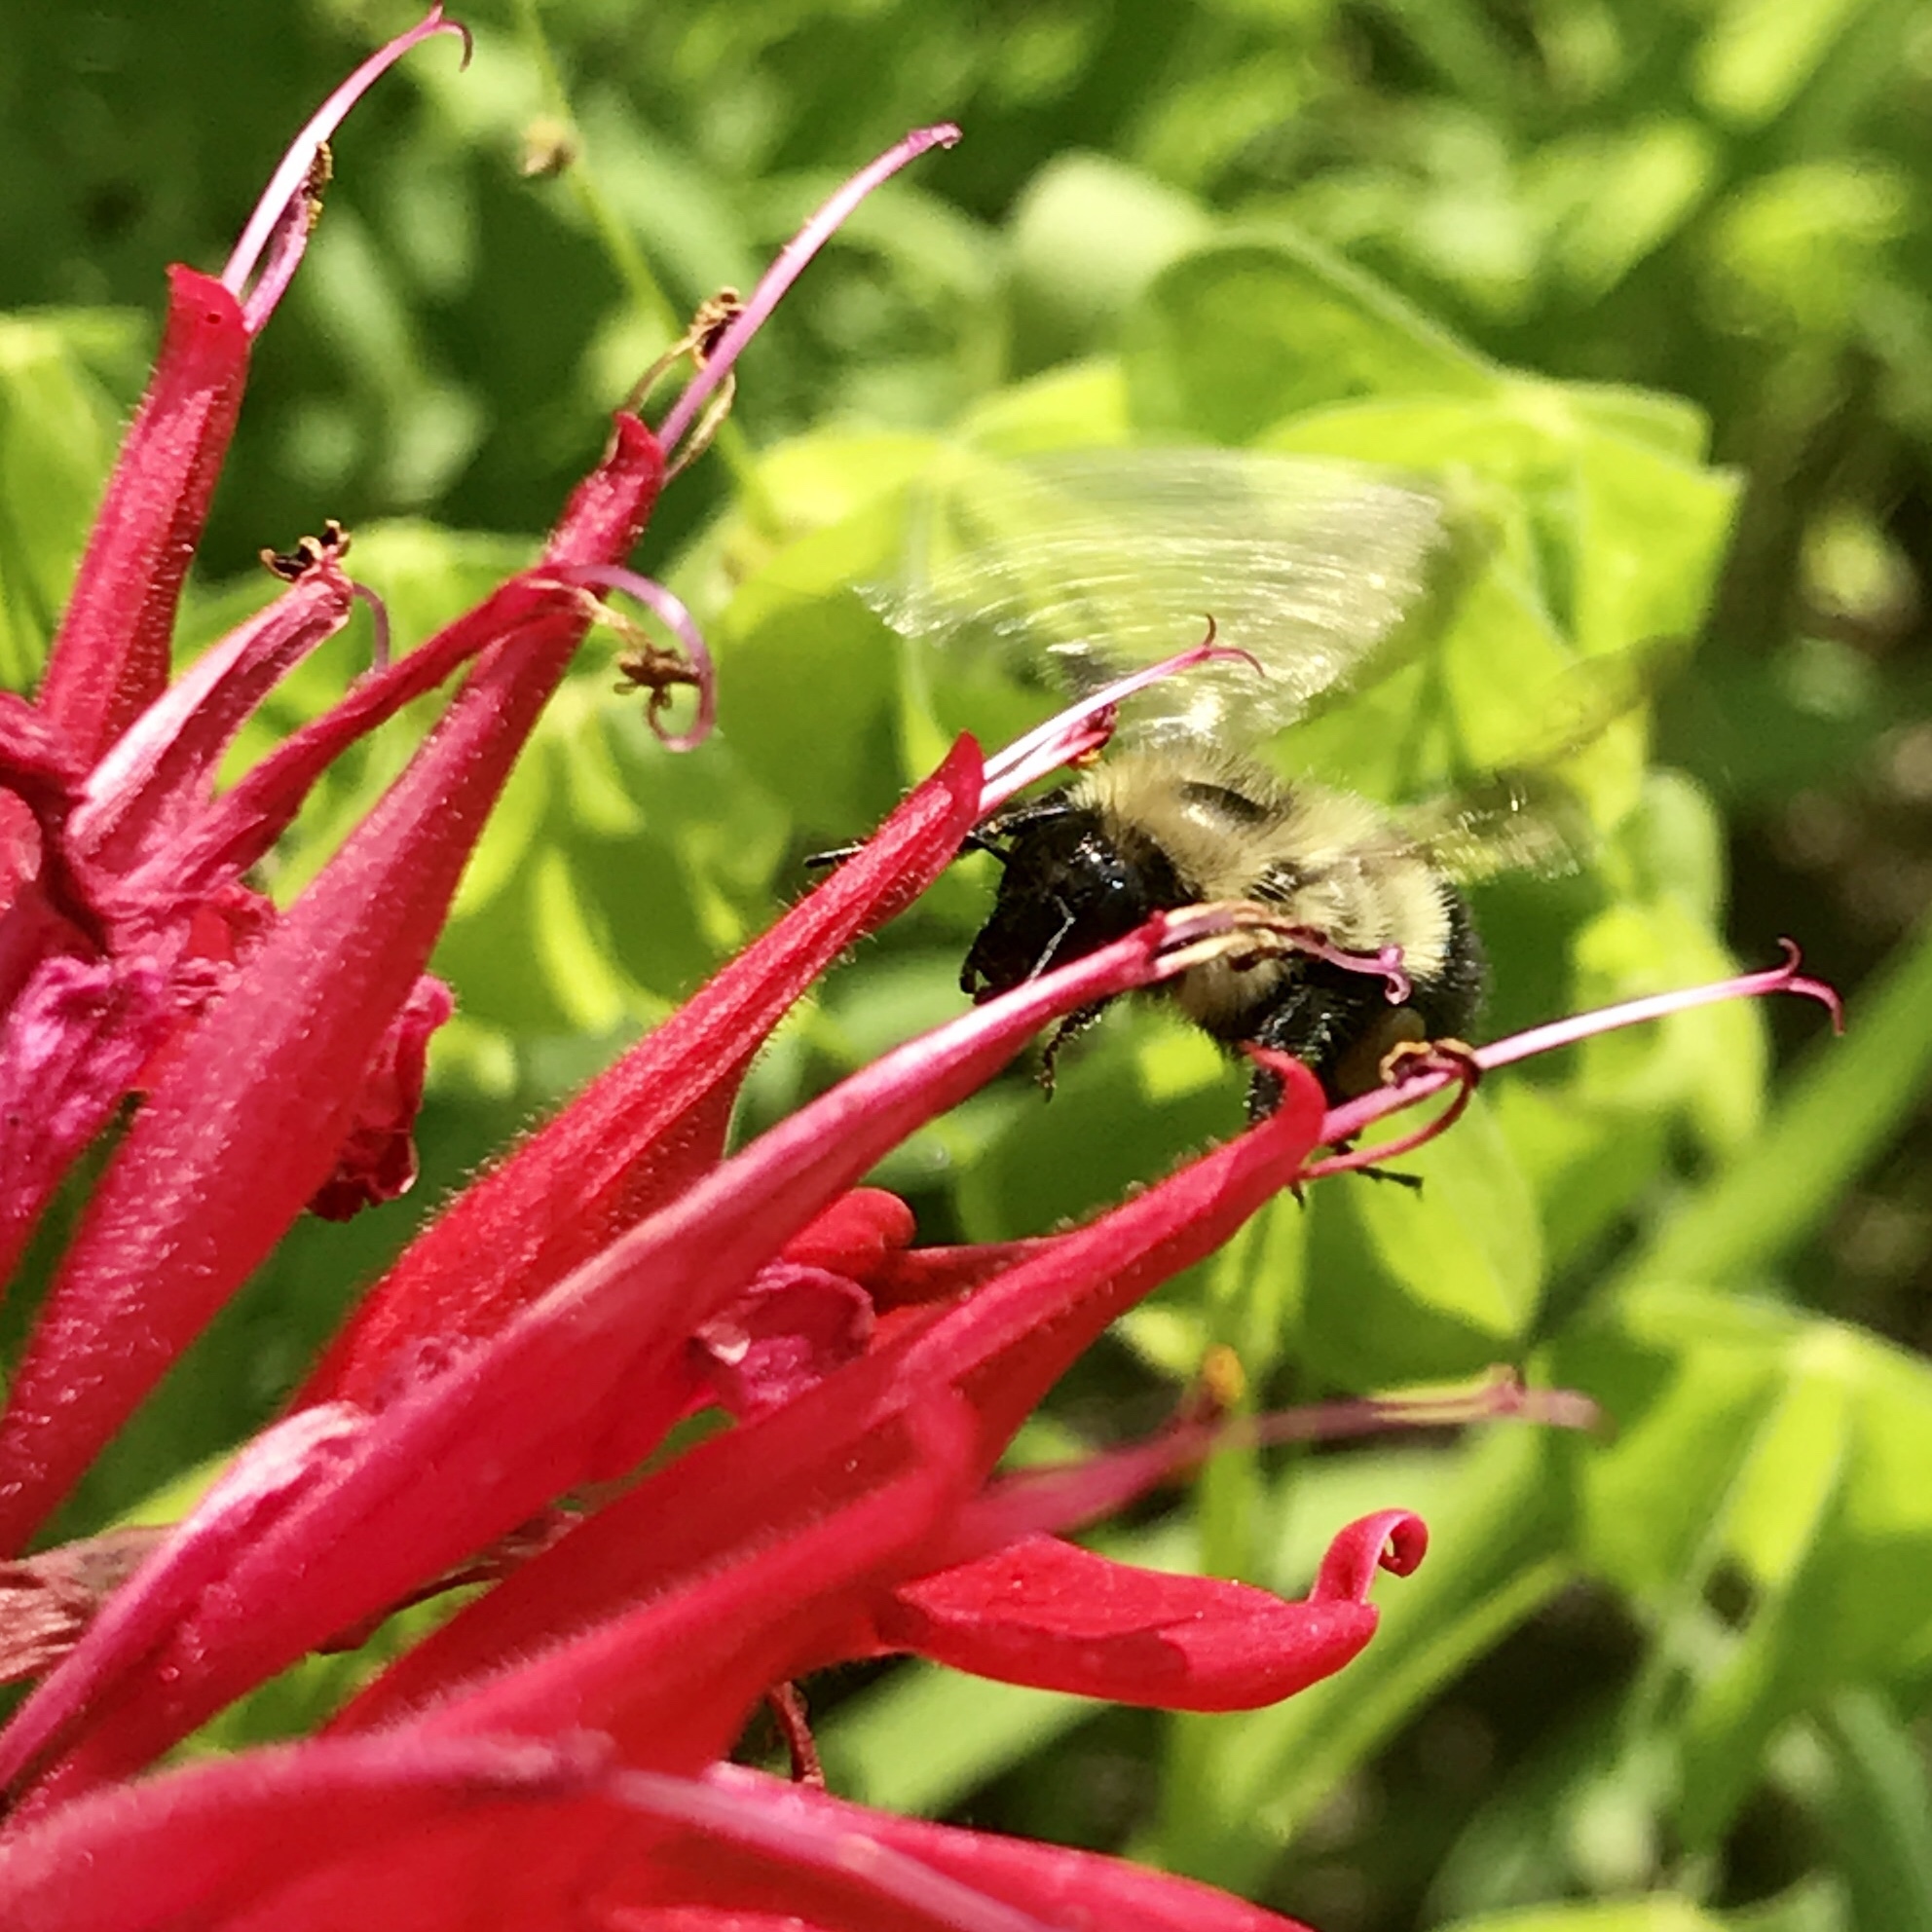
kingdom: Animalia
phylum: Arthropoda
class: Insecta
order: Hymenoptera
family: Apidae
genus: Bombus
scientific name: Bombus vagans
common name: Half-black bumble bee
